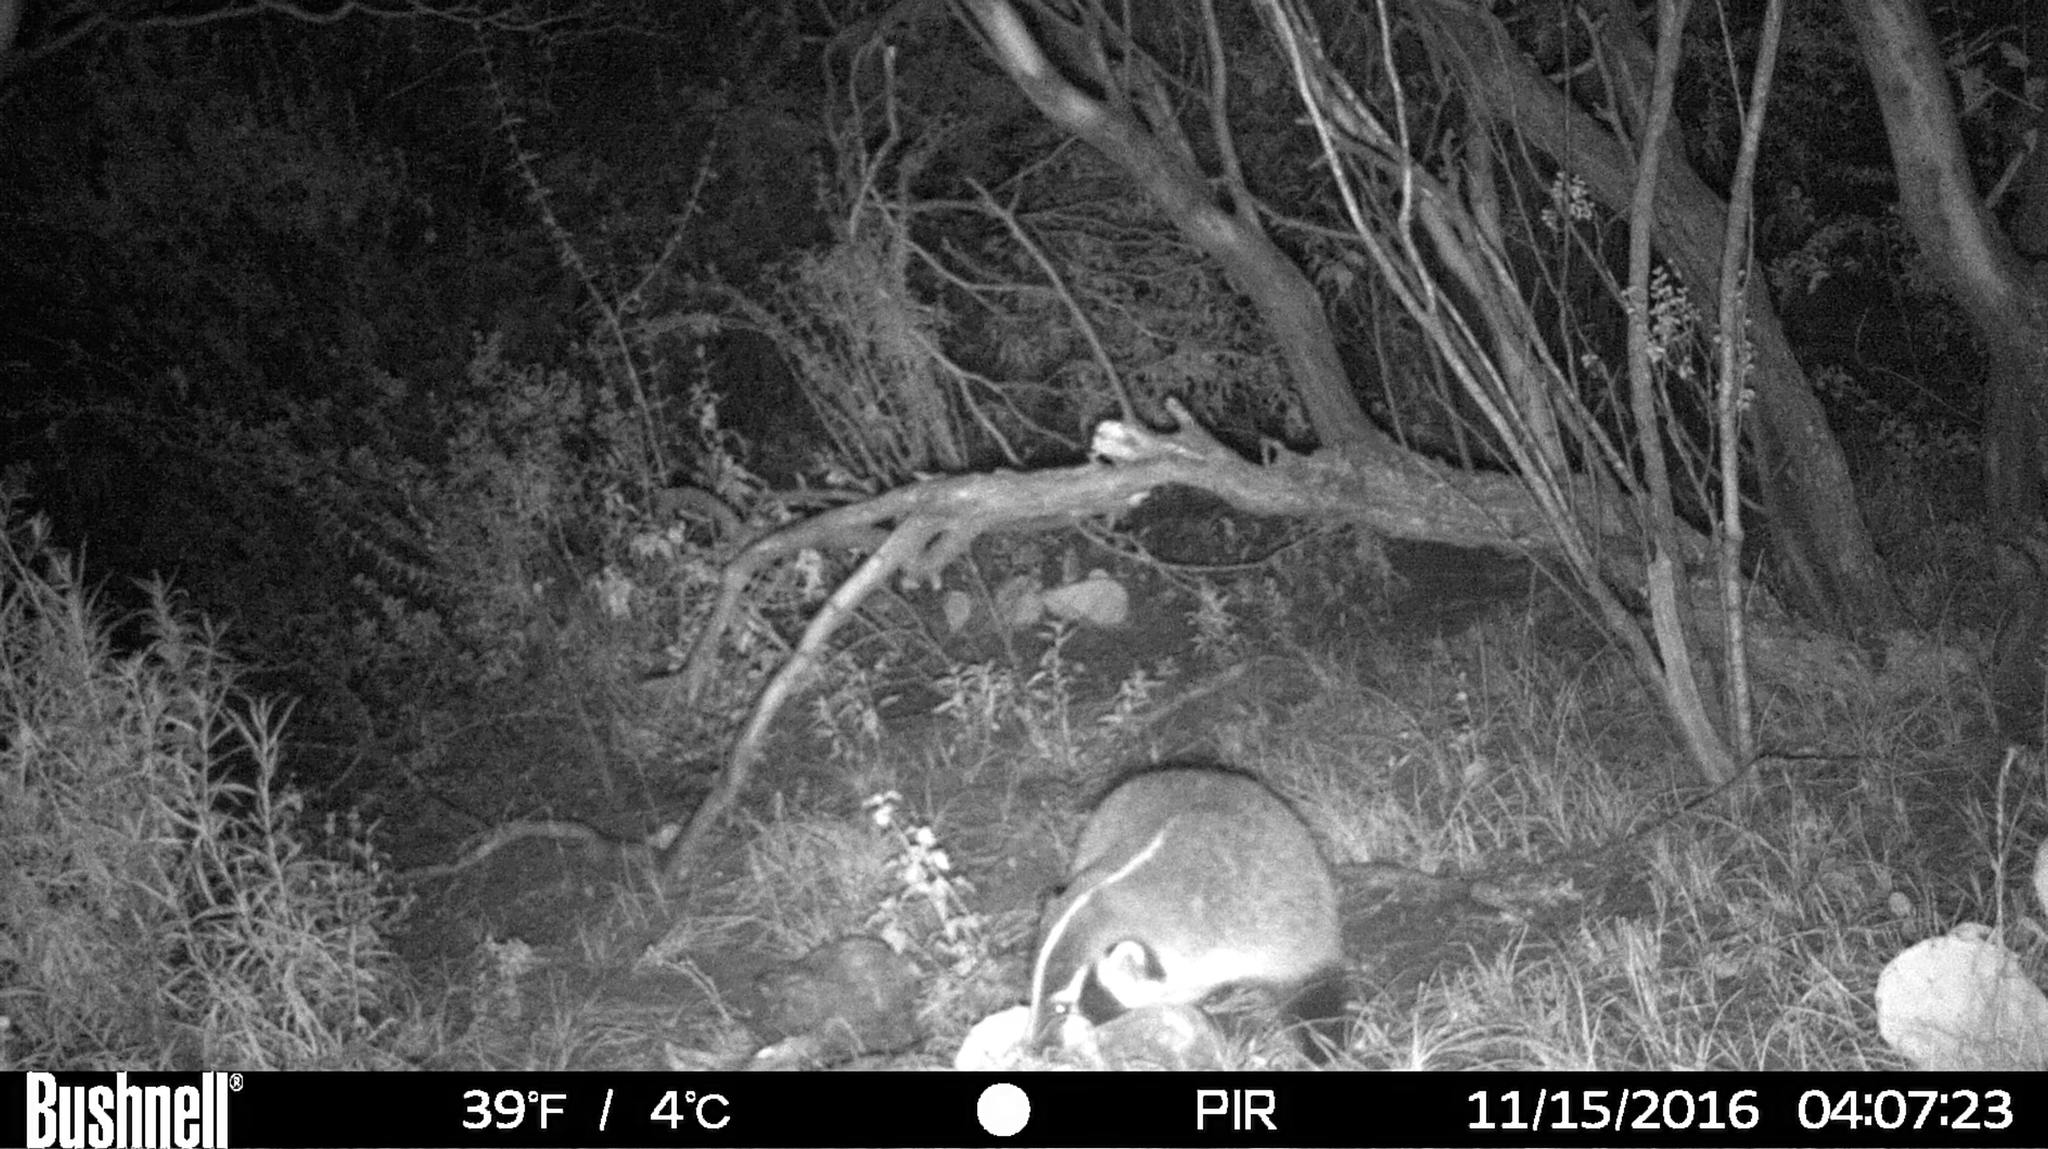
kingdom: Animalia
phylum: Chordata
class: Mammalia
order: Carnivora
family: Mustelidae
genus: Taxidea
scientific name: Taxidea taxus
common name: American badger
